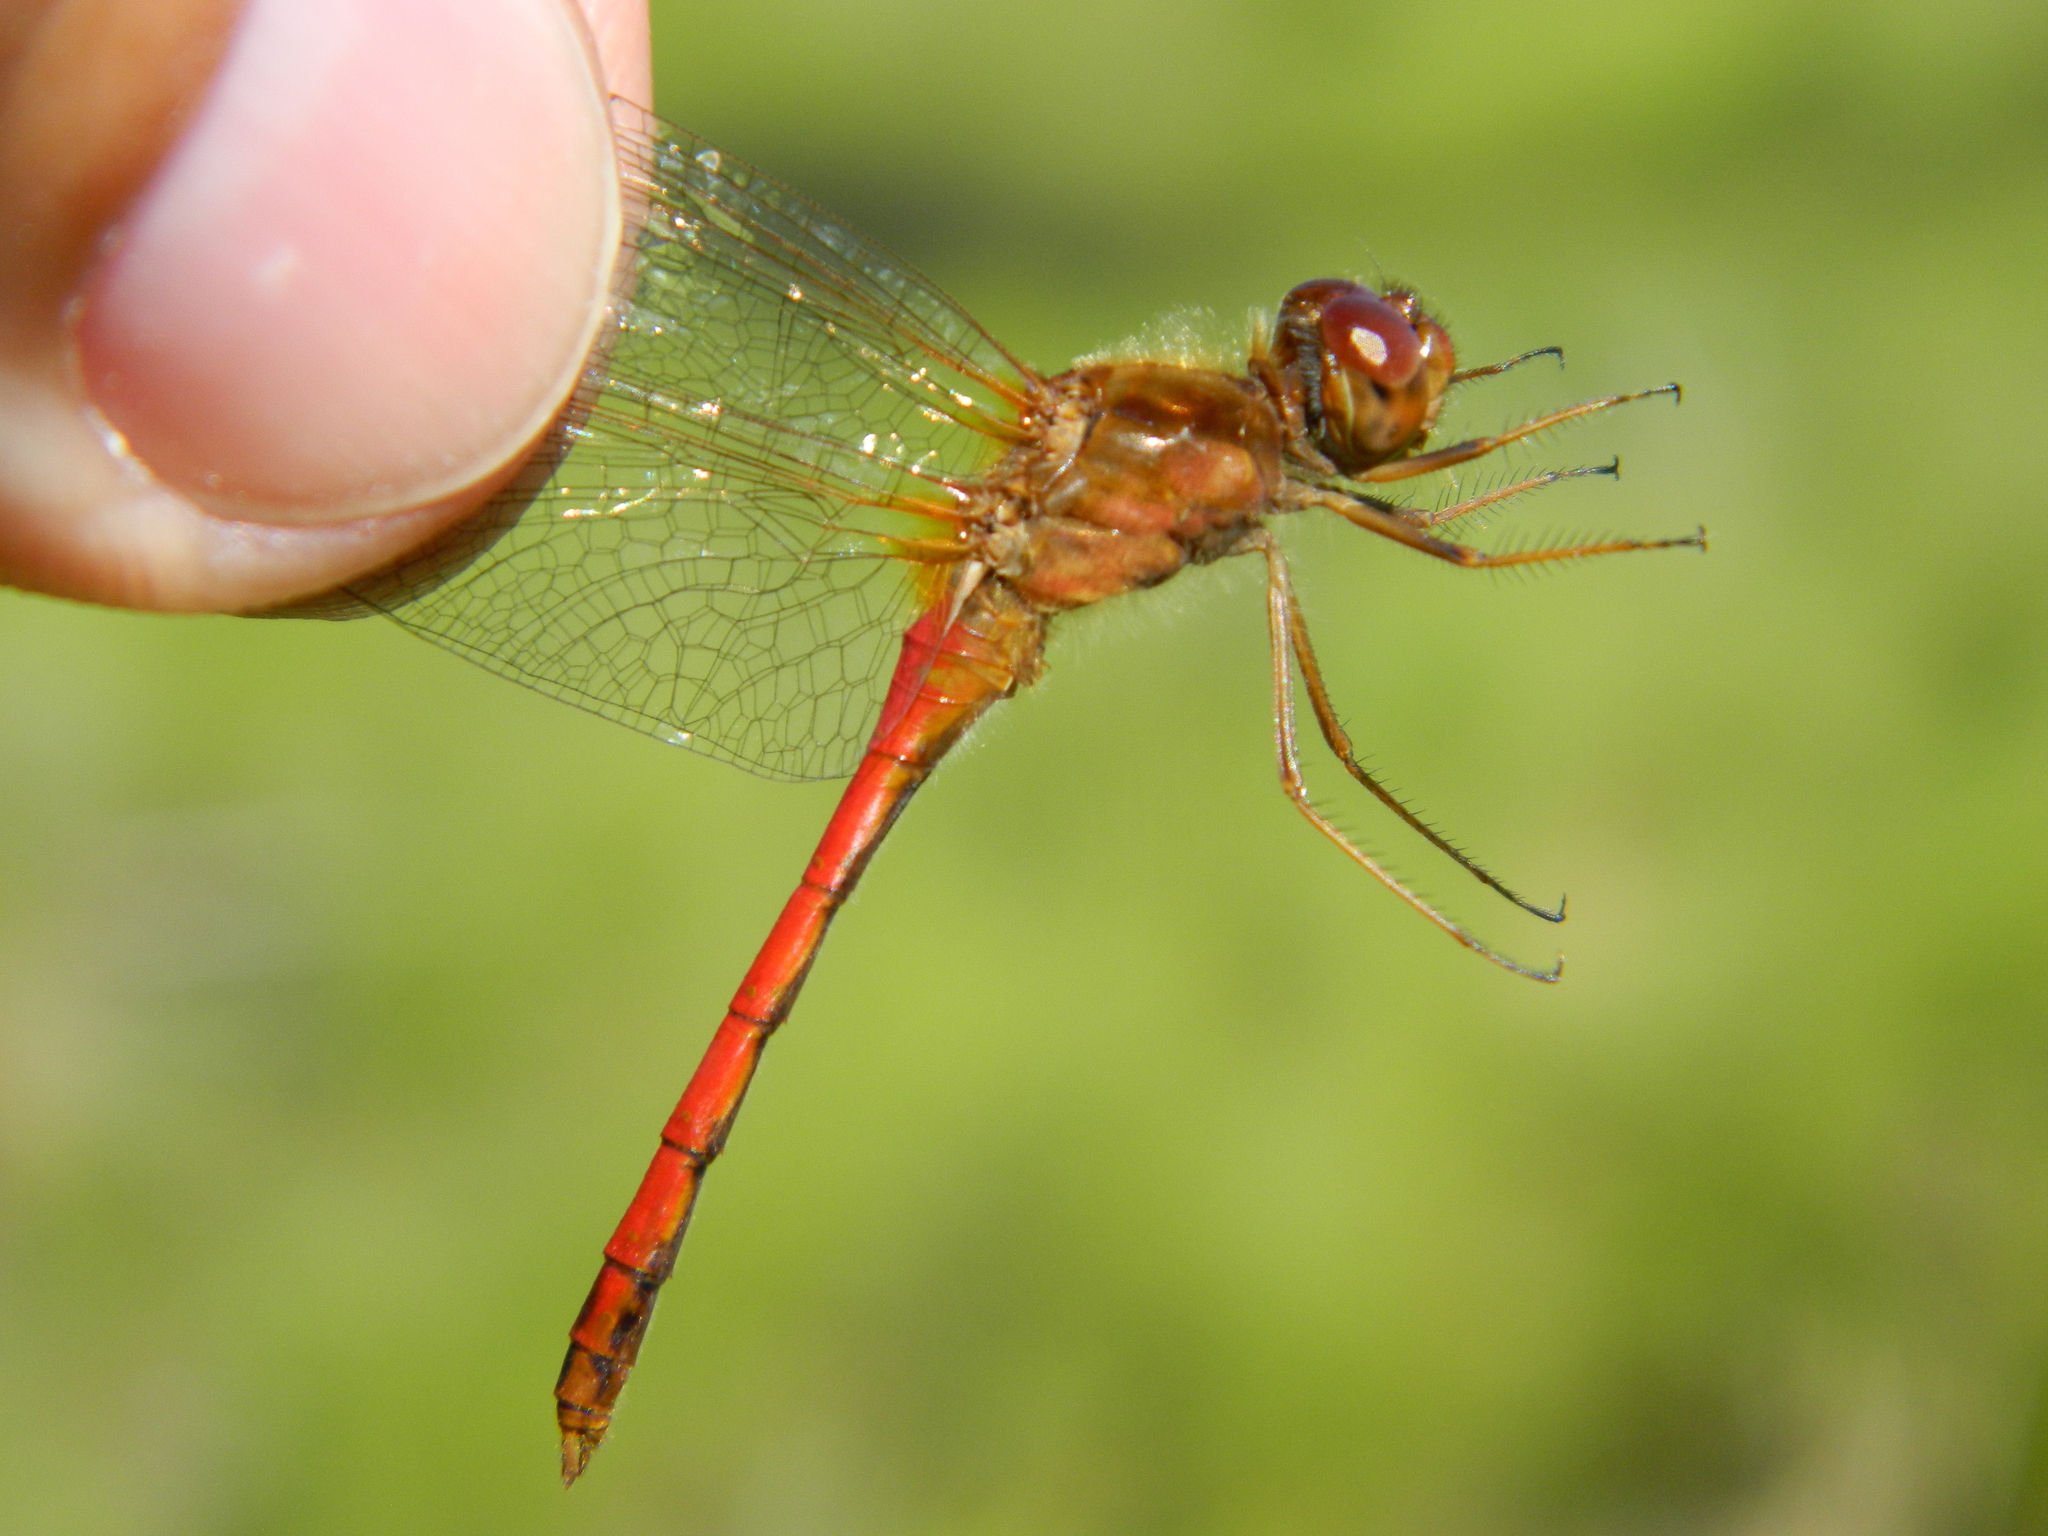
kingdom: Animalia
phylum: Arthropoda
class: Insecta
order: Odonata
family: Libellulidae
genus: Sympetrum
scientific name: Sympetrum vicinum
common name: Autumn meadowhawk
